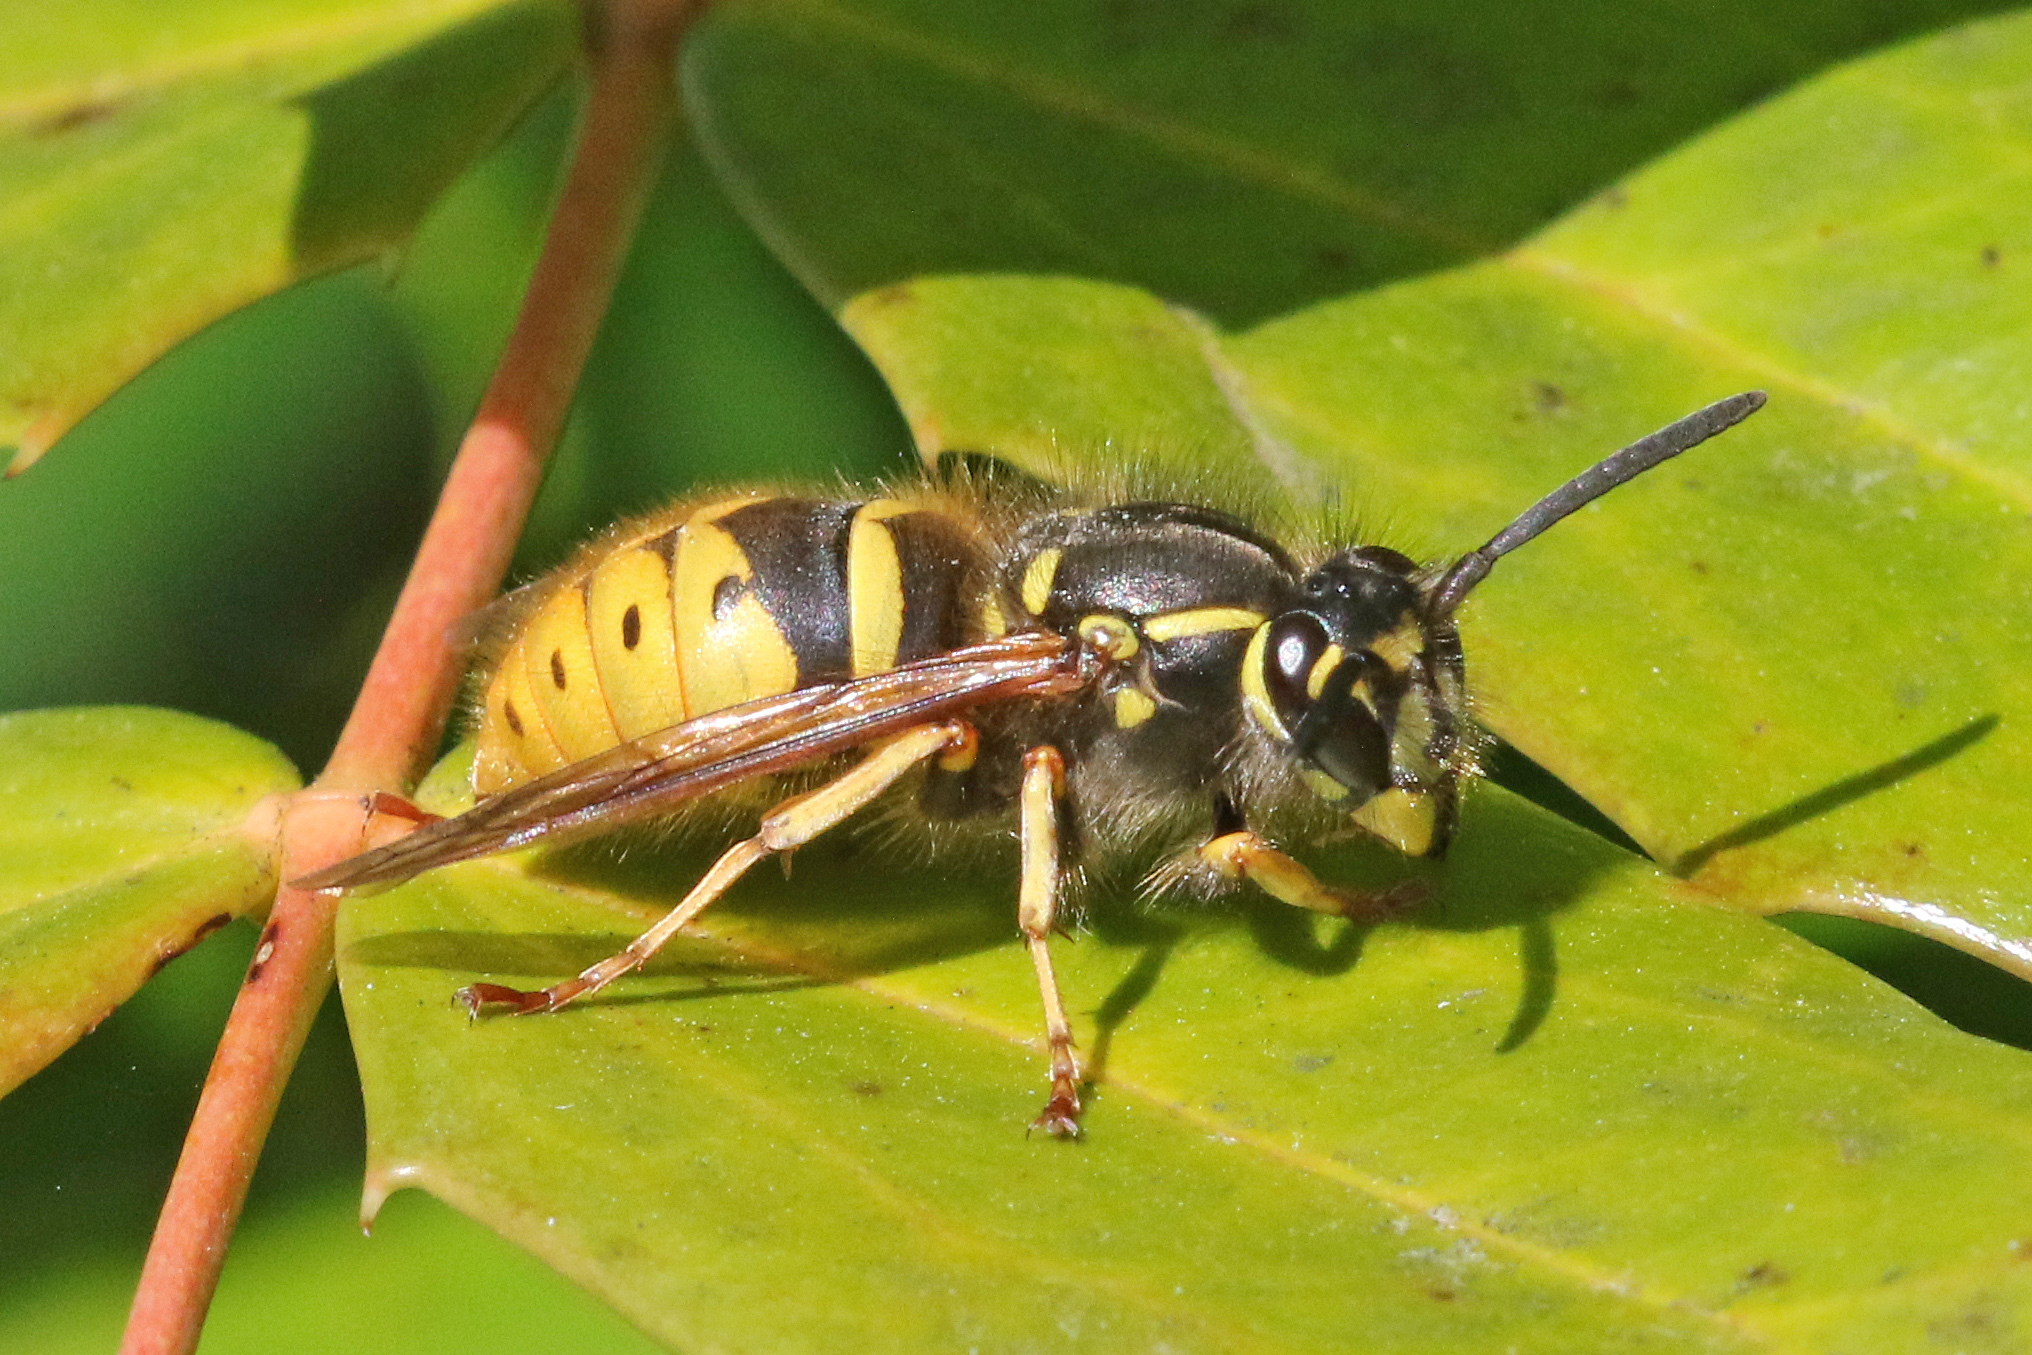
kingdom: Animalia
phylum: Arthropoda
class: Insecta
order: Hymenoptera
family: Vespidae
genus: Vespula
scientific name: Vespula vulgaris
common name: Common wasp
